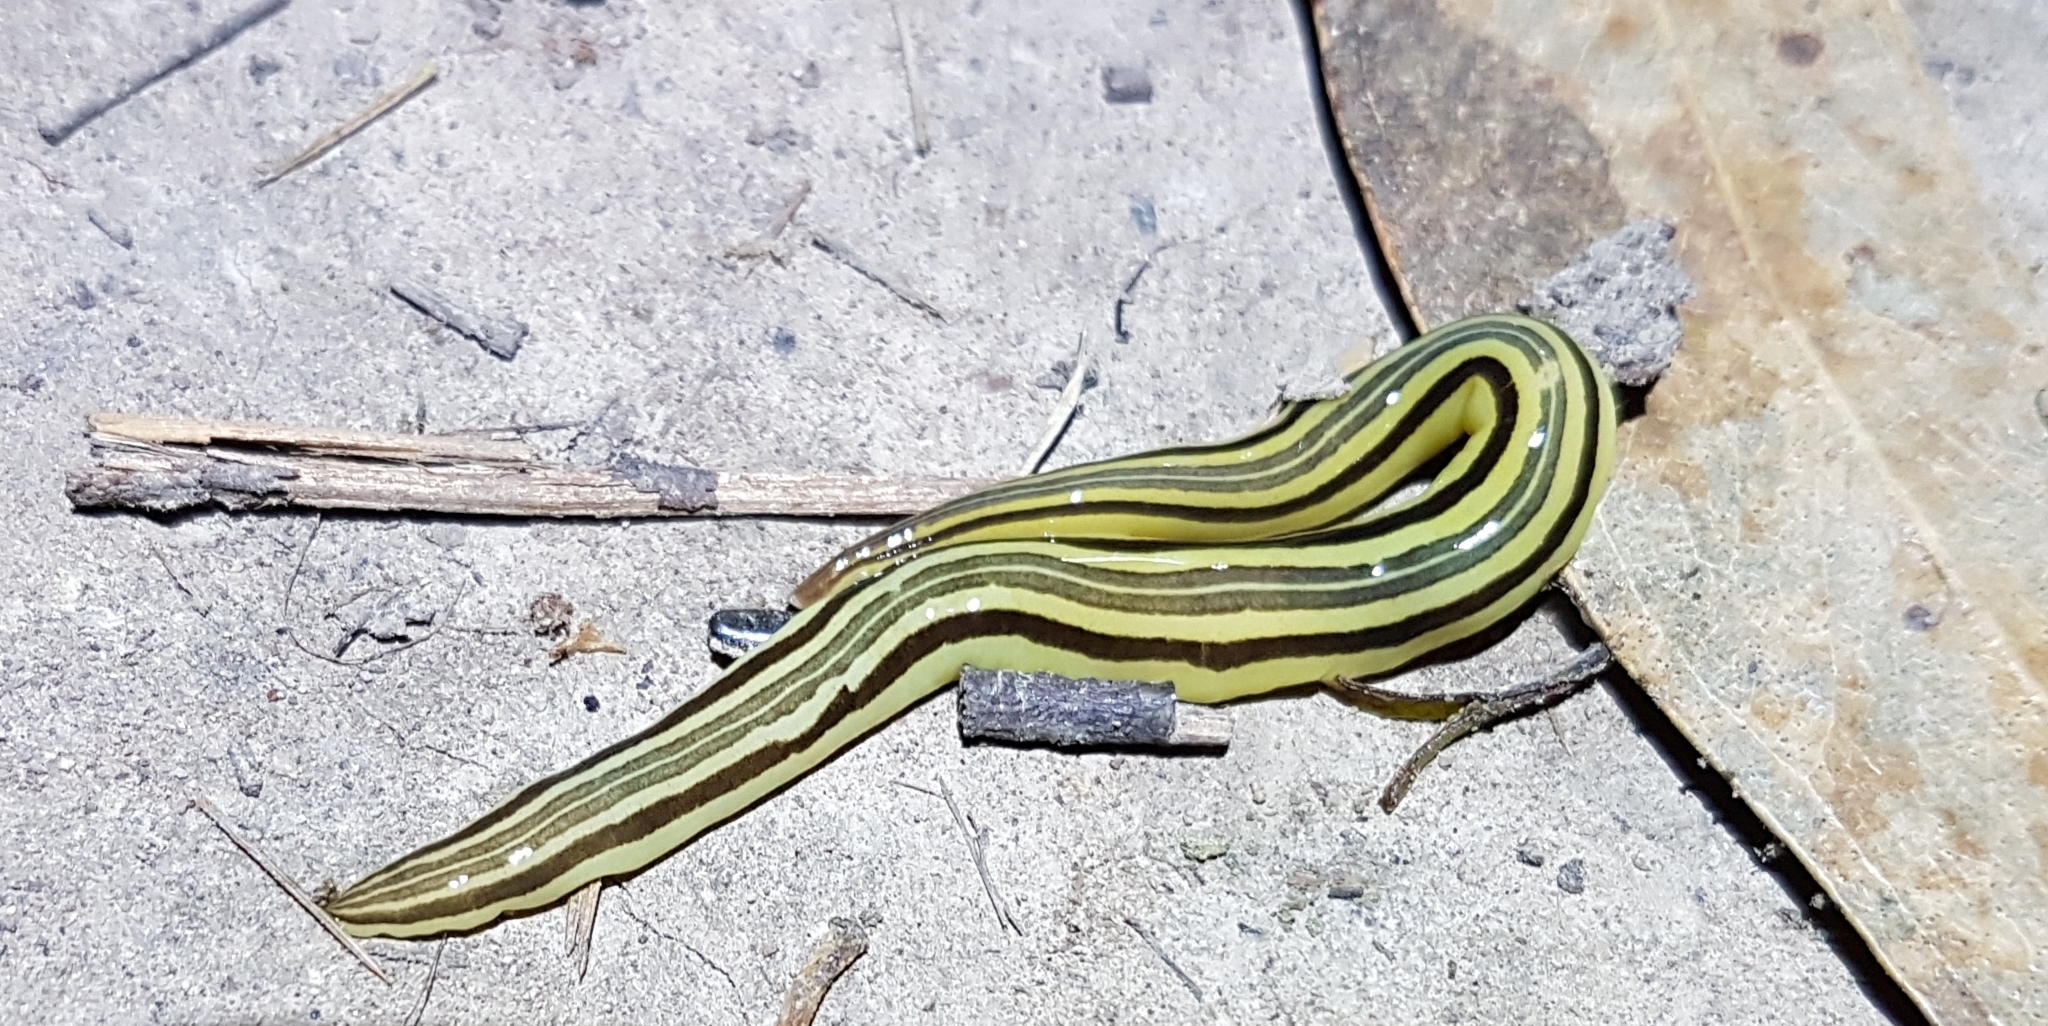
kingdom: Animalia
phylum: Platyhelminthes
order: Tricladida
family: Geoplanidae
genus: Caenoplana
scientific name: Caenoplana hoggii
